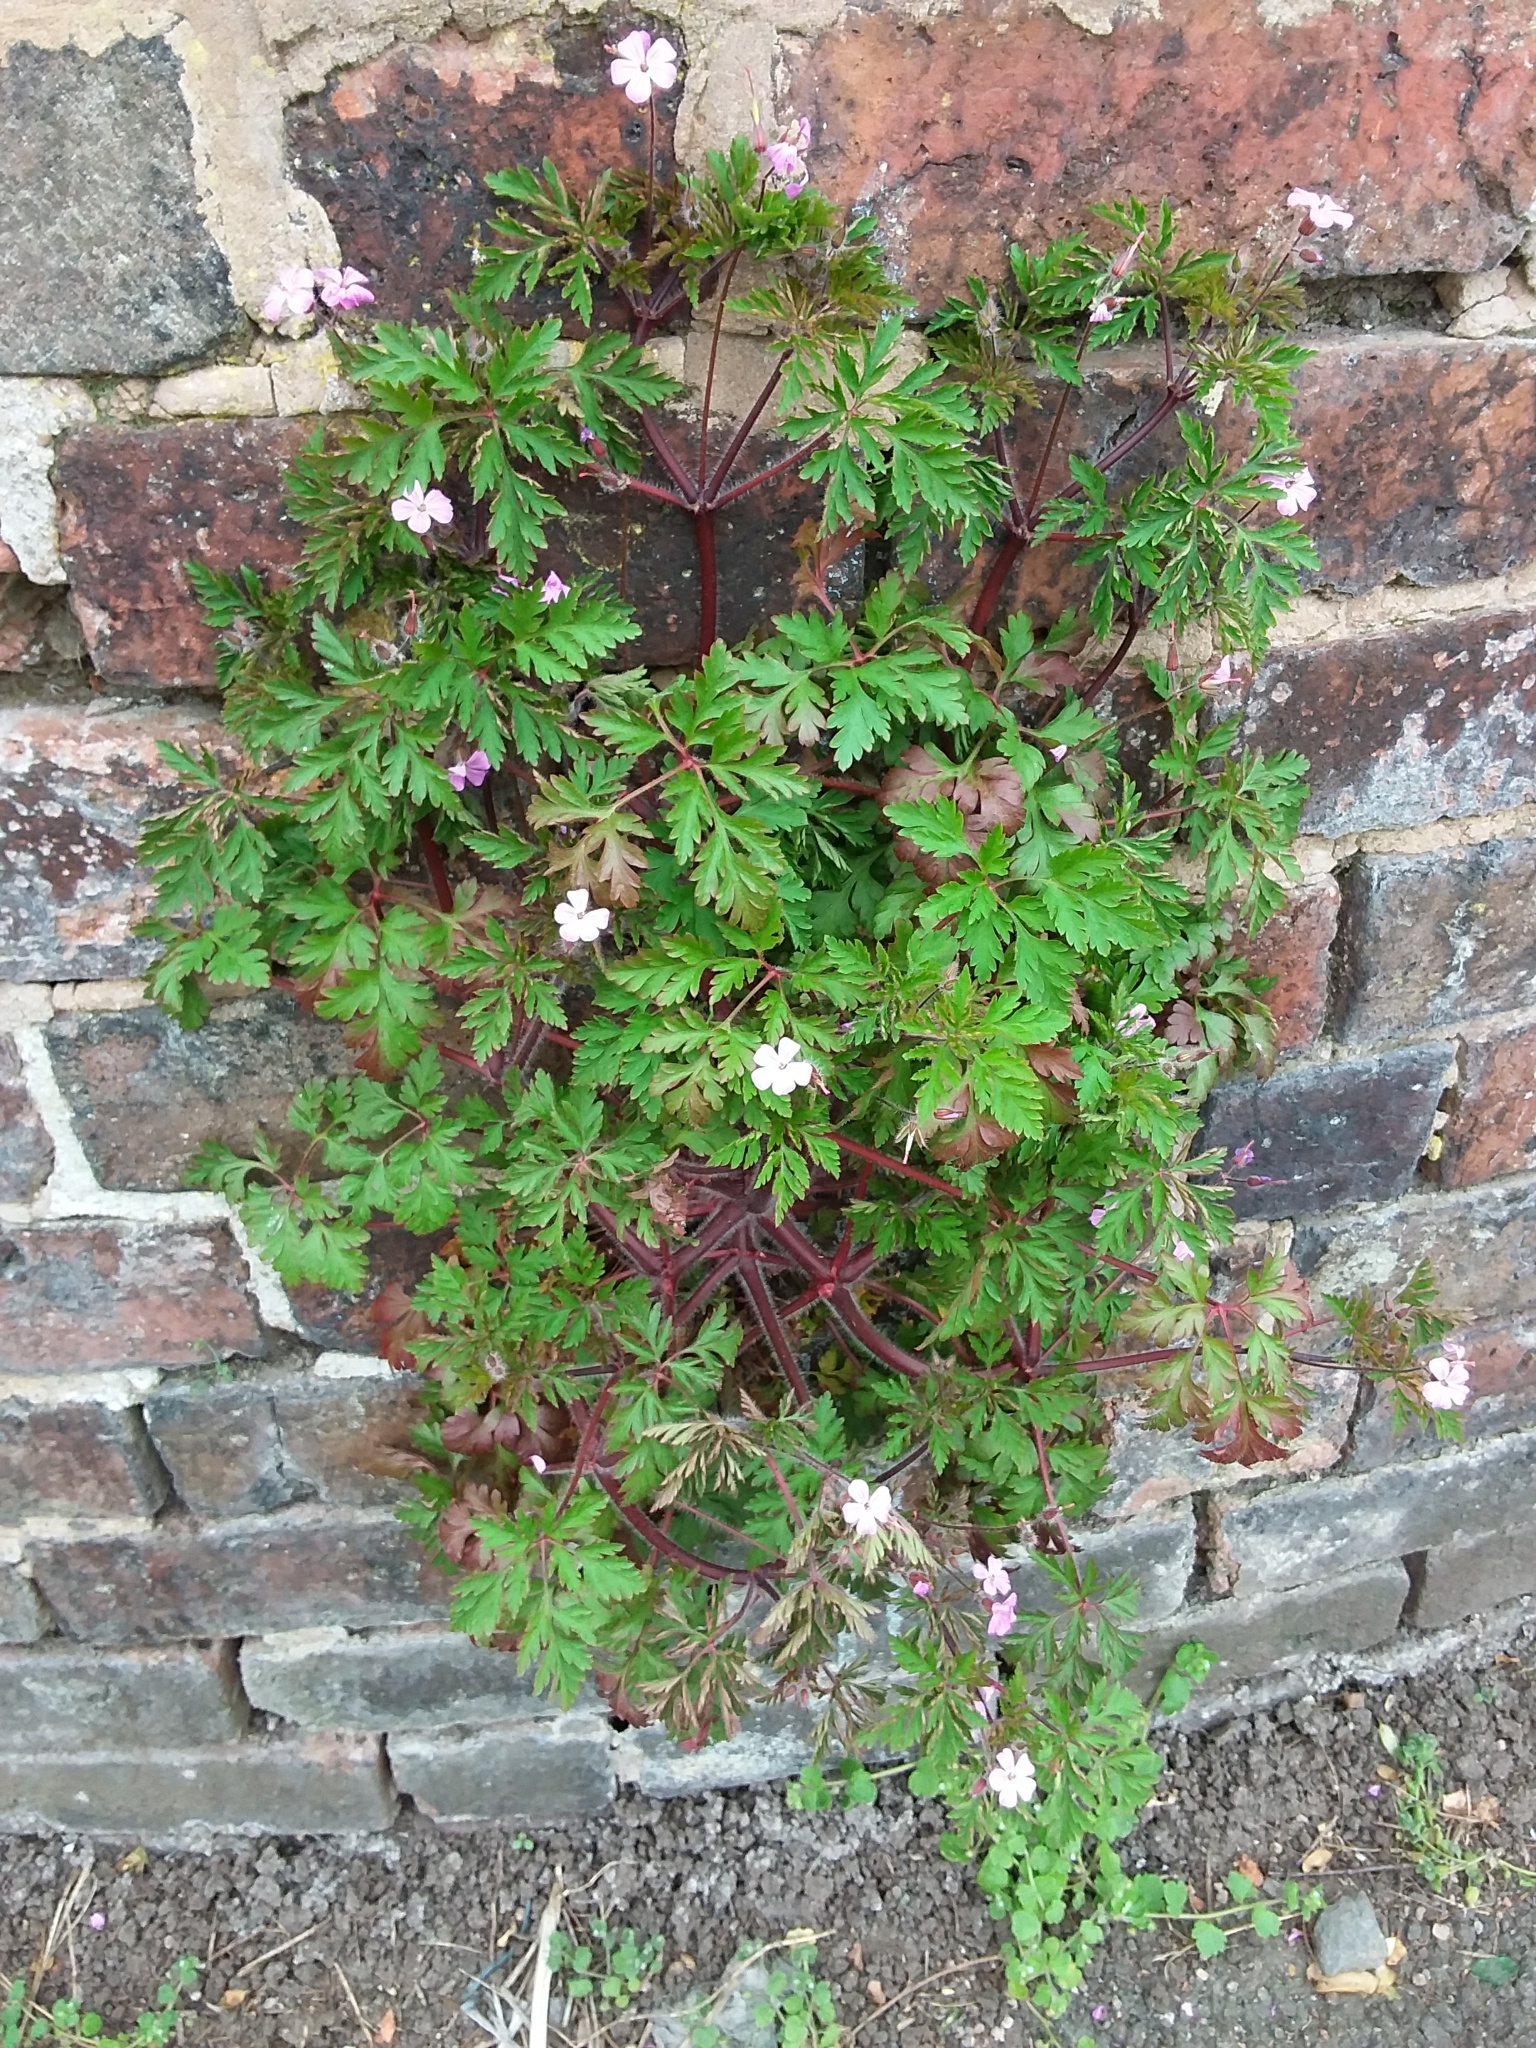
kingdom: Plantae
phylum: Tracheophyta
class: Magnoliopsida
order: Geraniales
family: Geraniaceae
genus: Geranium
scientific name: Geranium robertianum
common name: Herb-robert
